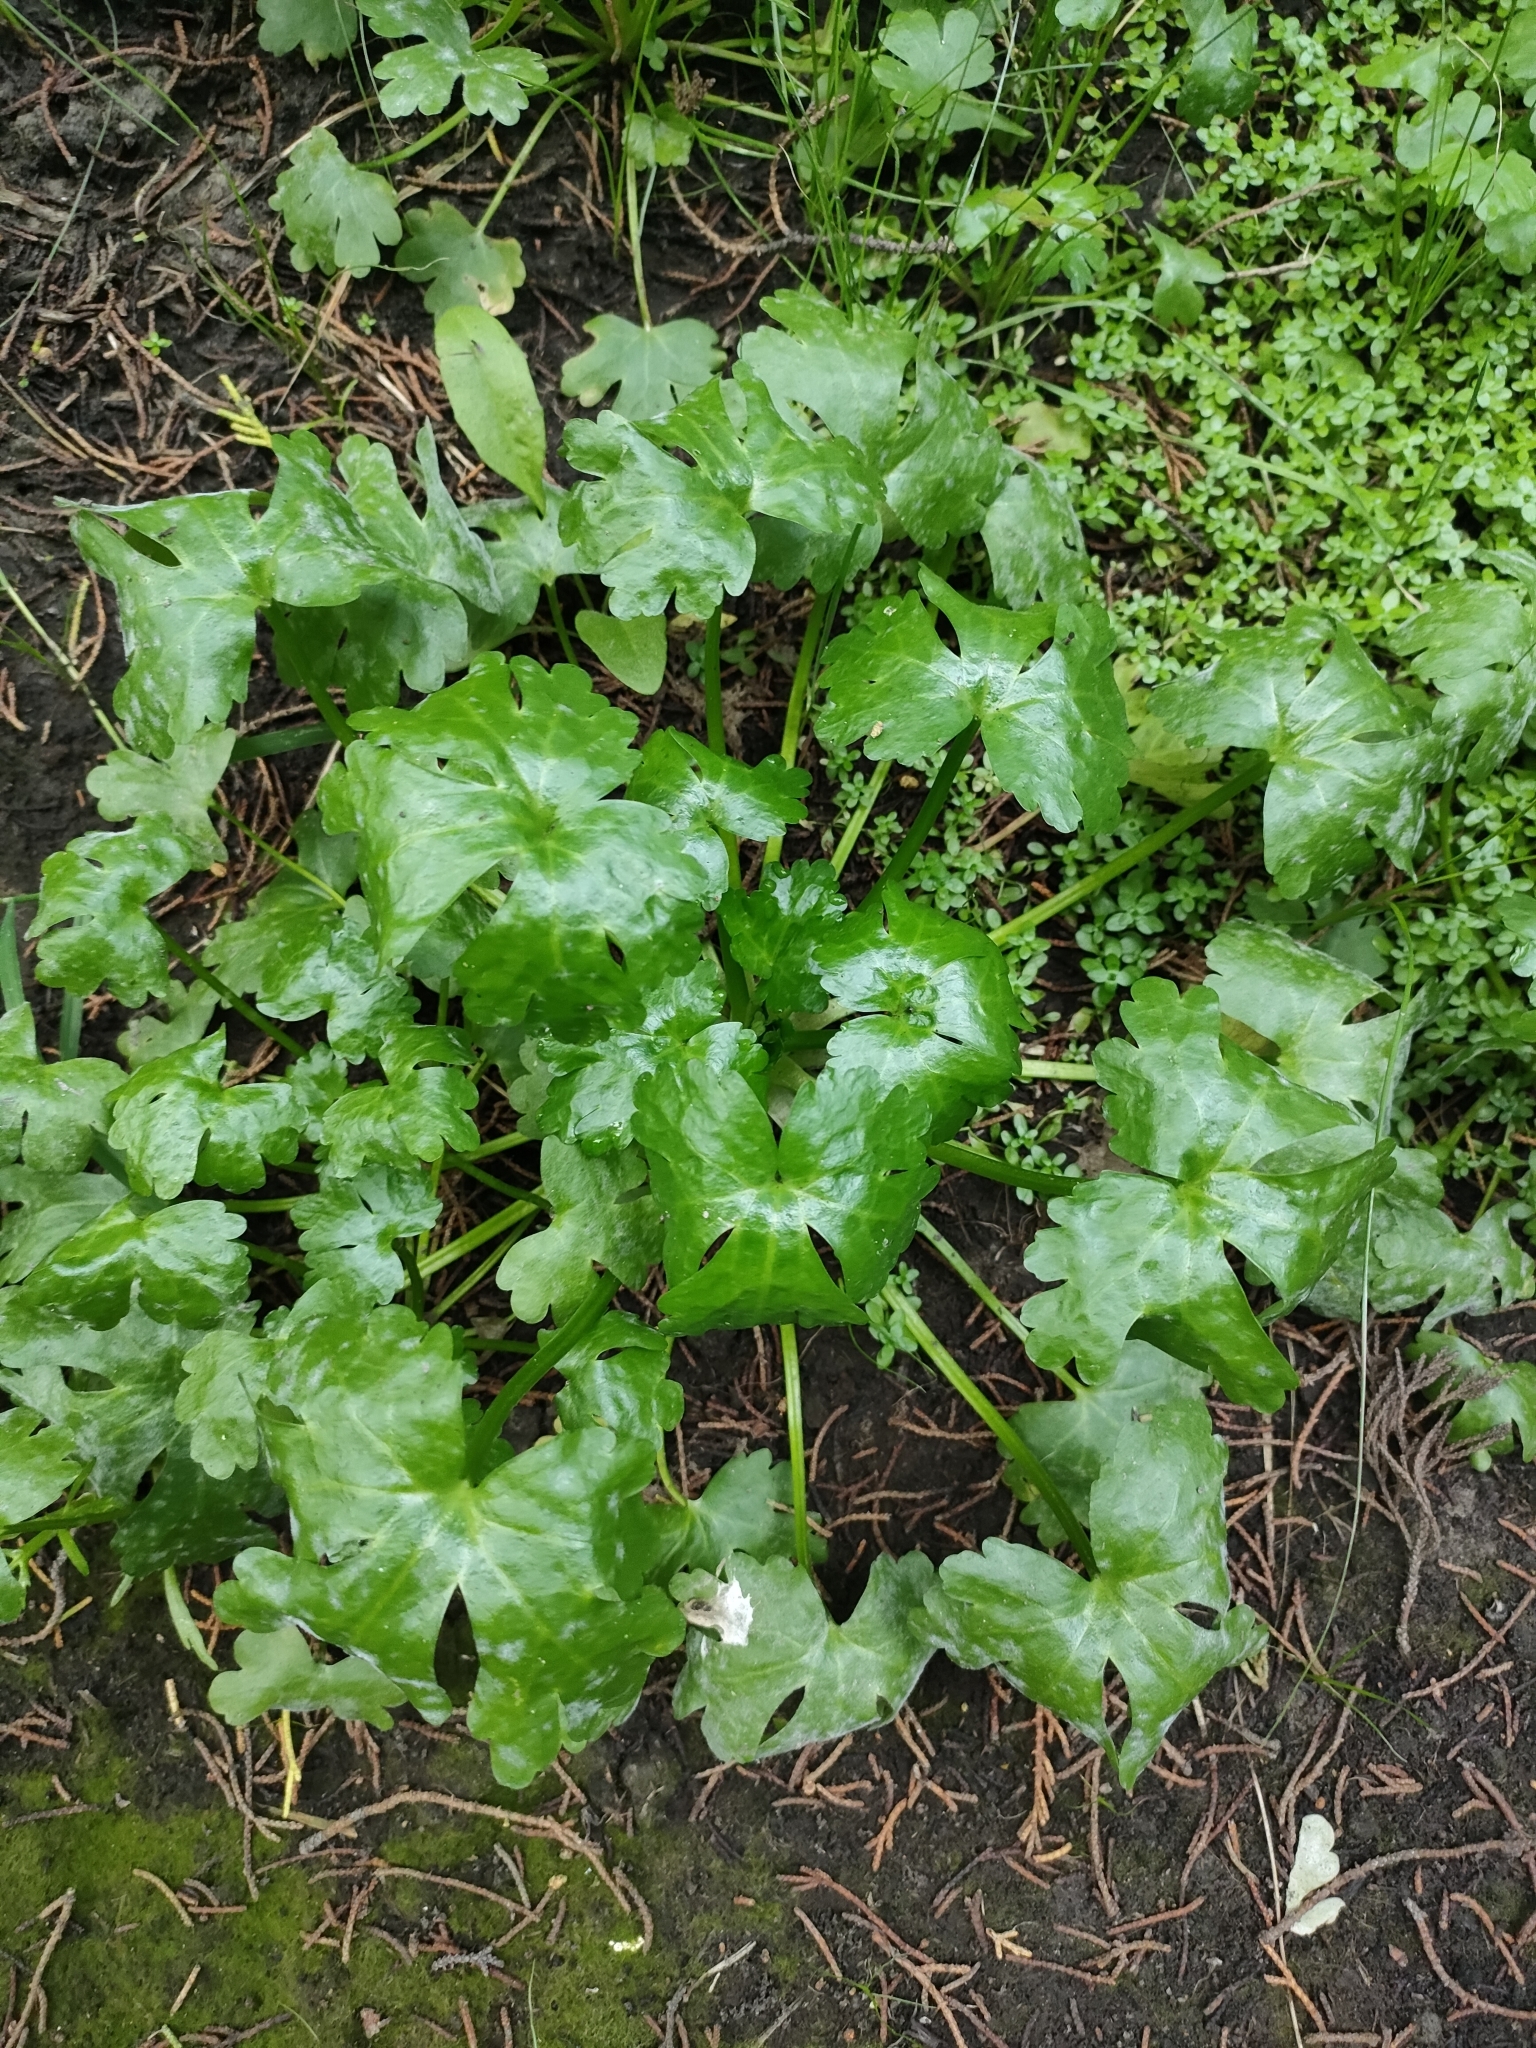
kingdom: Plantae
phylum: Tracheophyta
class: Magnoliopsida
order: Ranunculales
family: Ranunculaceae
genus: Ranunculus
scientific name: Ranunculus sceleratus
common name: Celery-leaved buttercup
